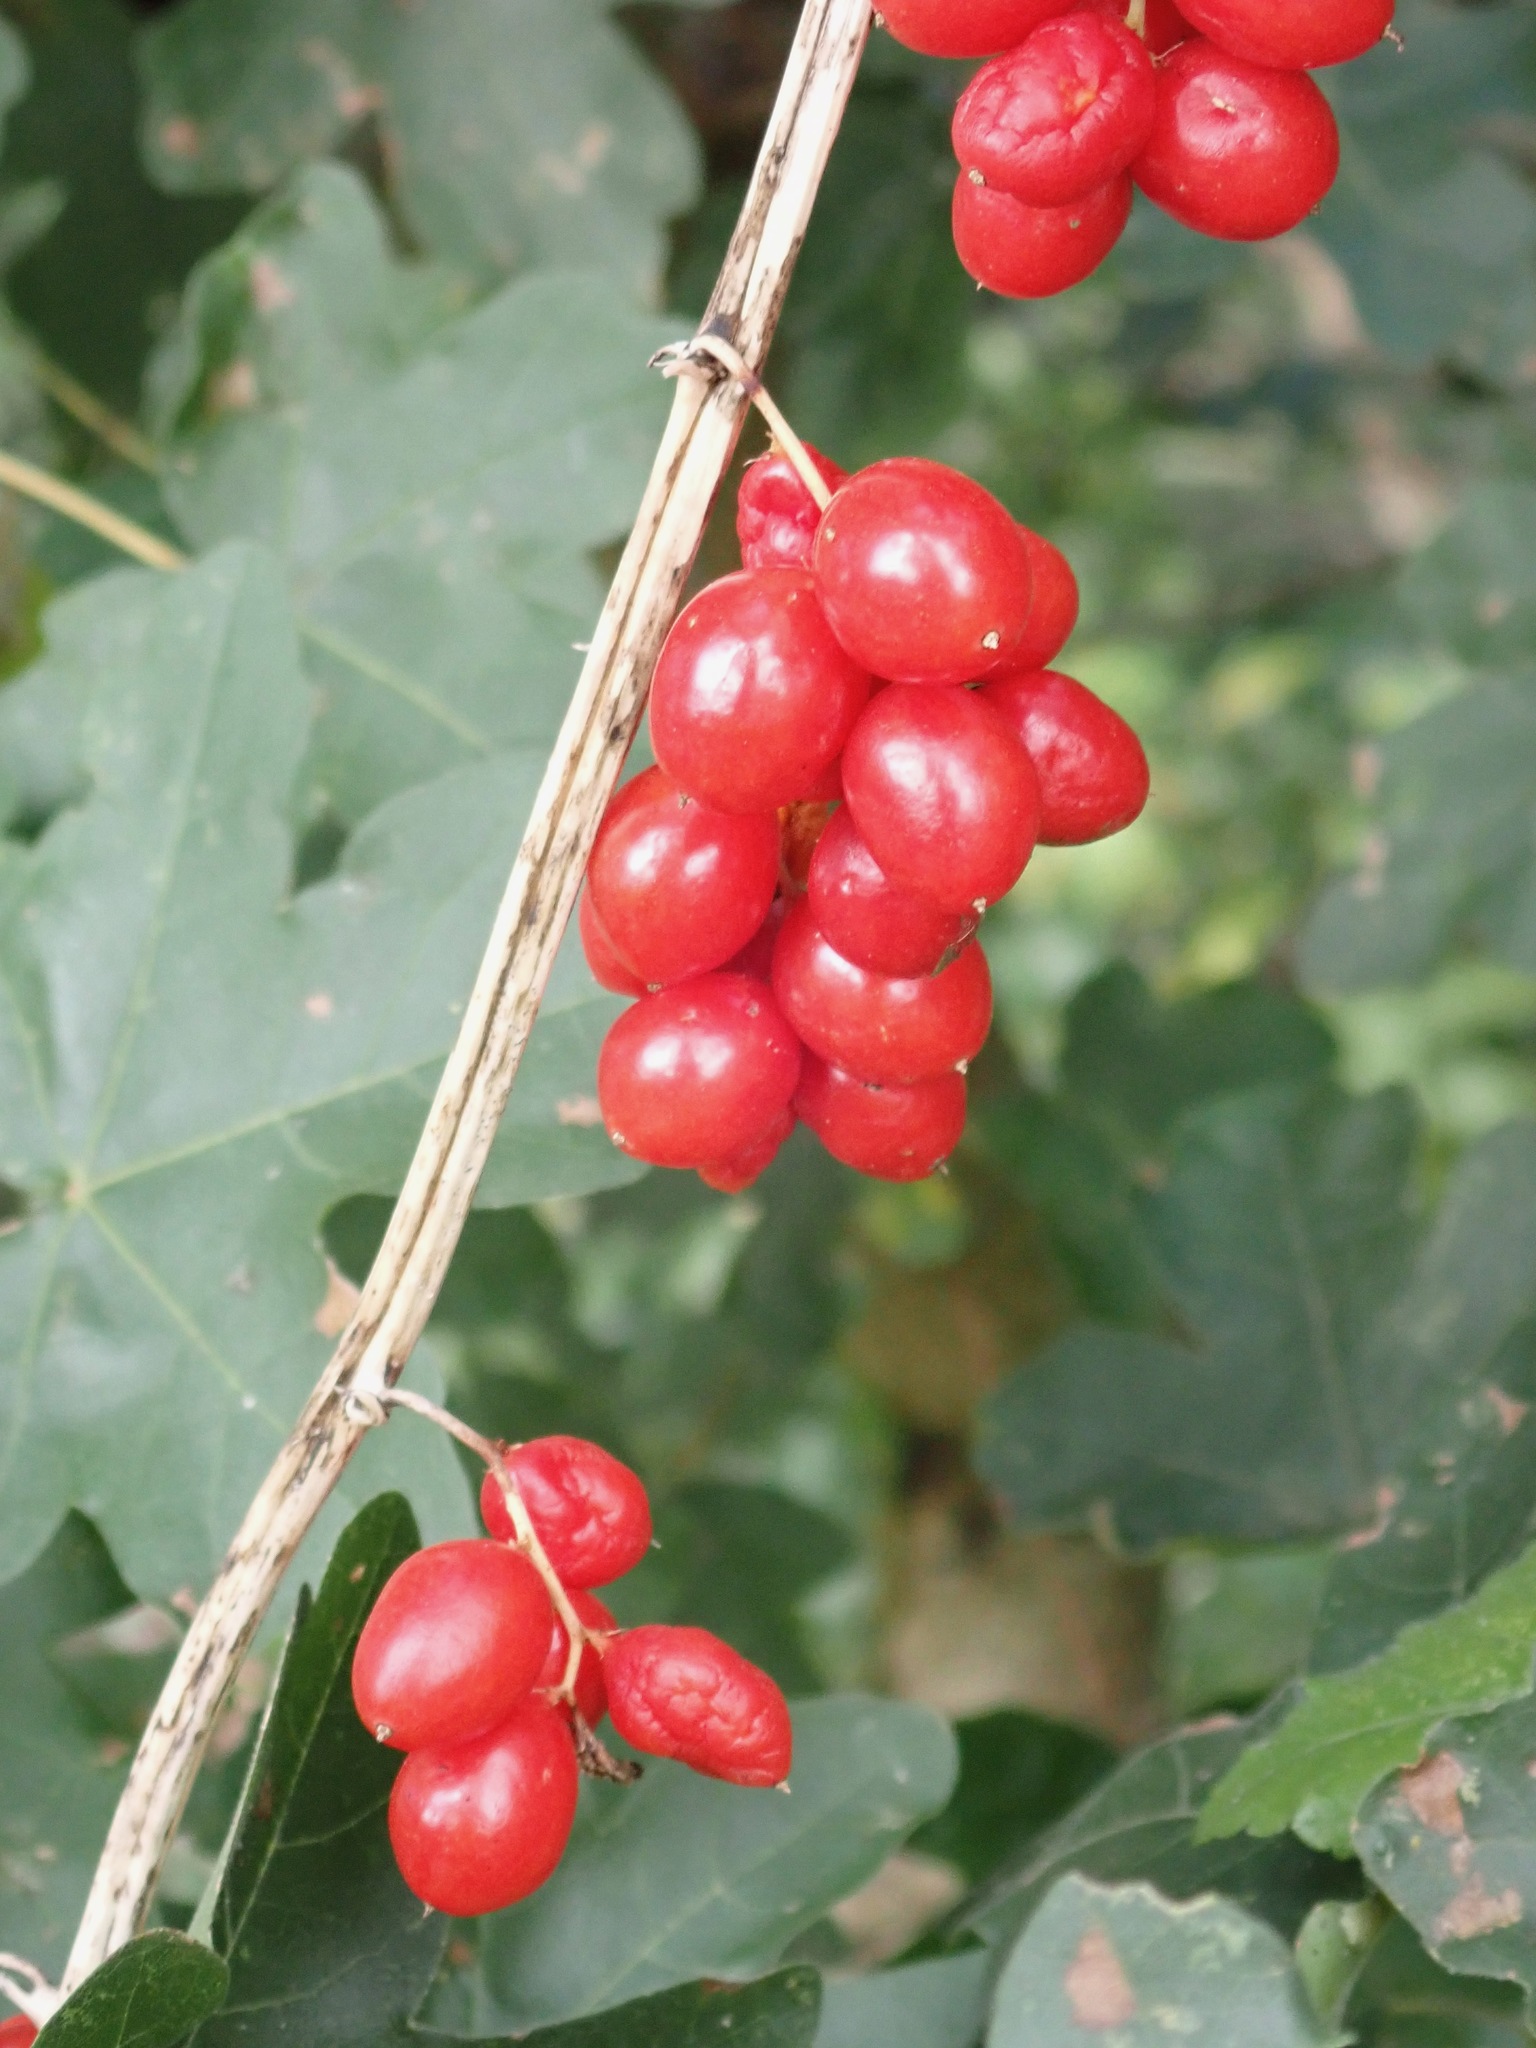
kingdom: Plantae
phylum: Tracheophyta
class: Liliopsida
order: Dioscoreales
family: Dioscoreaceae
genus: Dioscorea
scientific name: Dioscorea communis
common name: Black-bindweed
